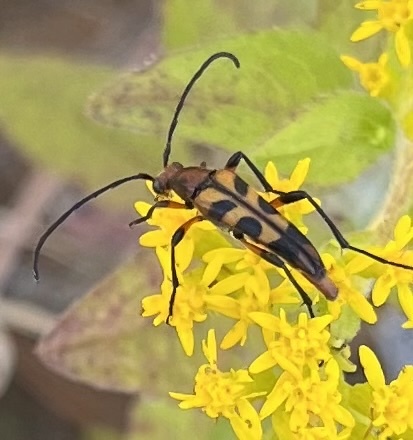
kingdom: Animalia
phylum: Arthropoda
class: Insecta
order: Coleoptera
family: Cerambycidae
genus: Strangalia
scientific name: Strangalia sexnotata
